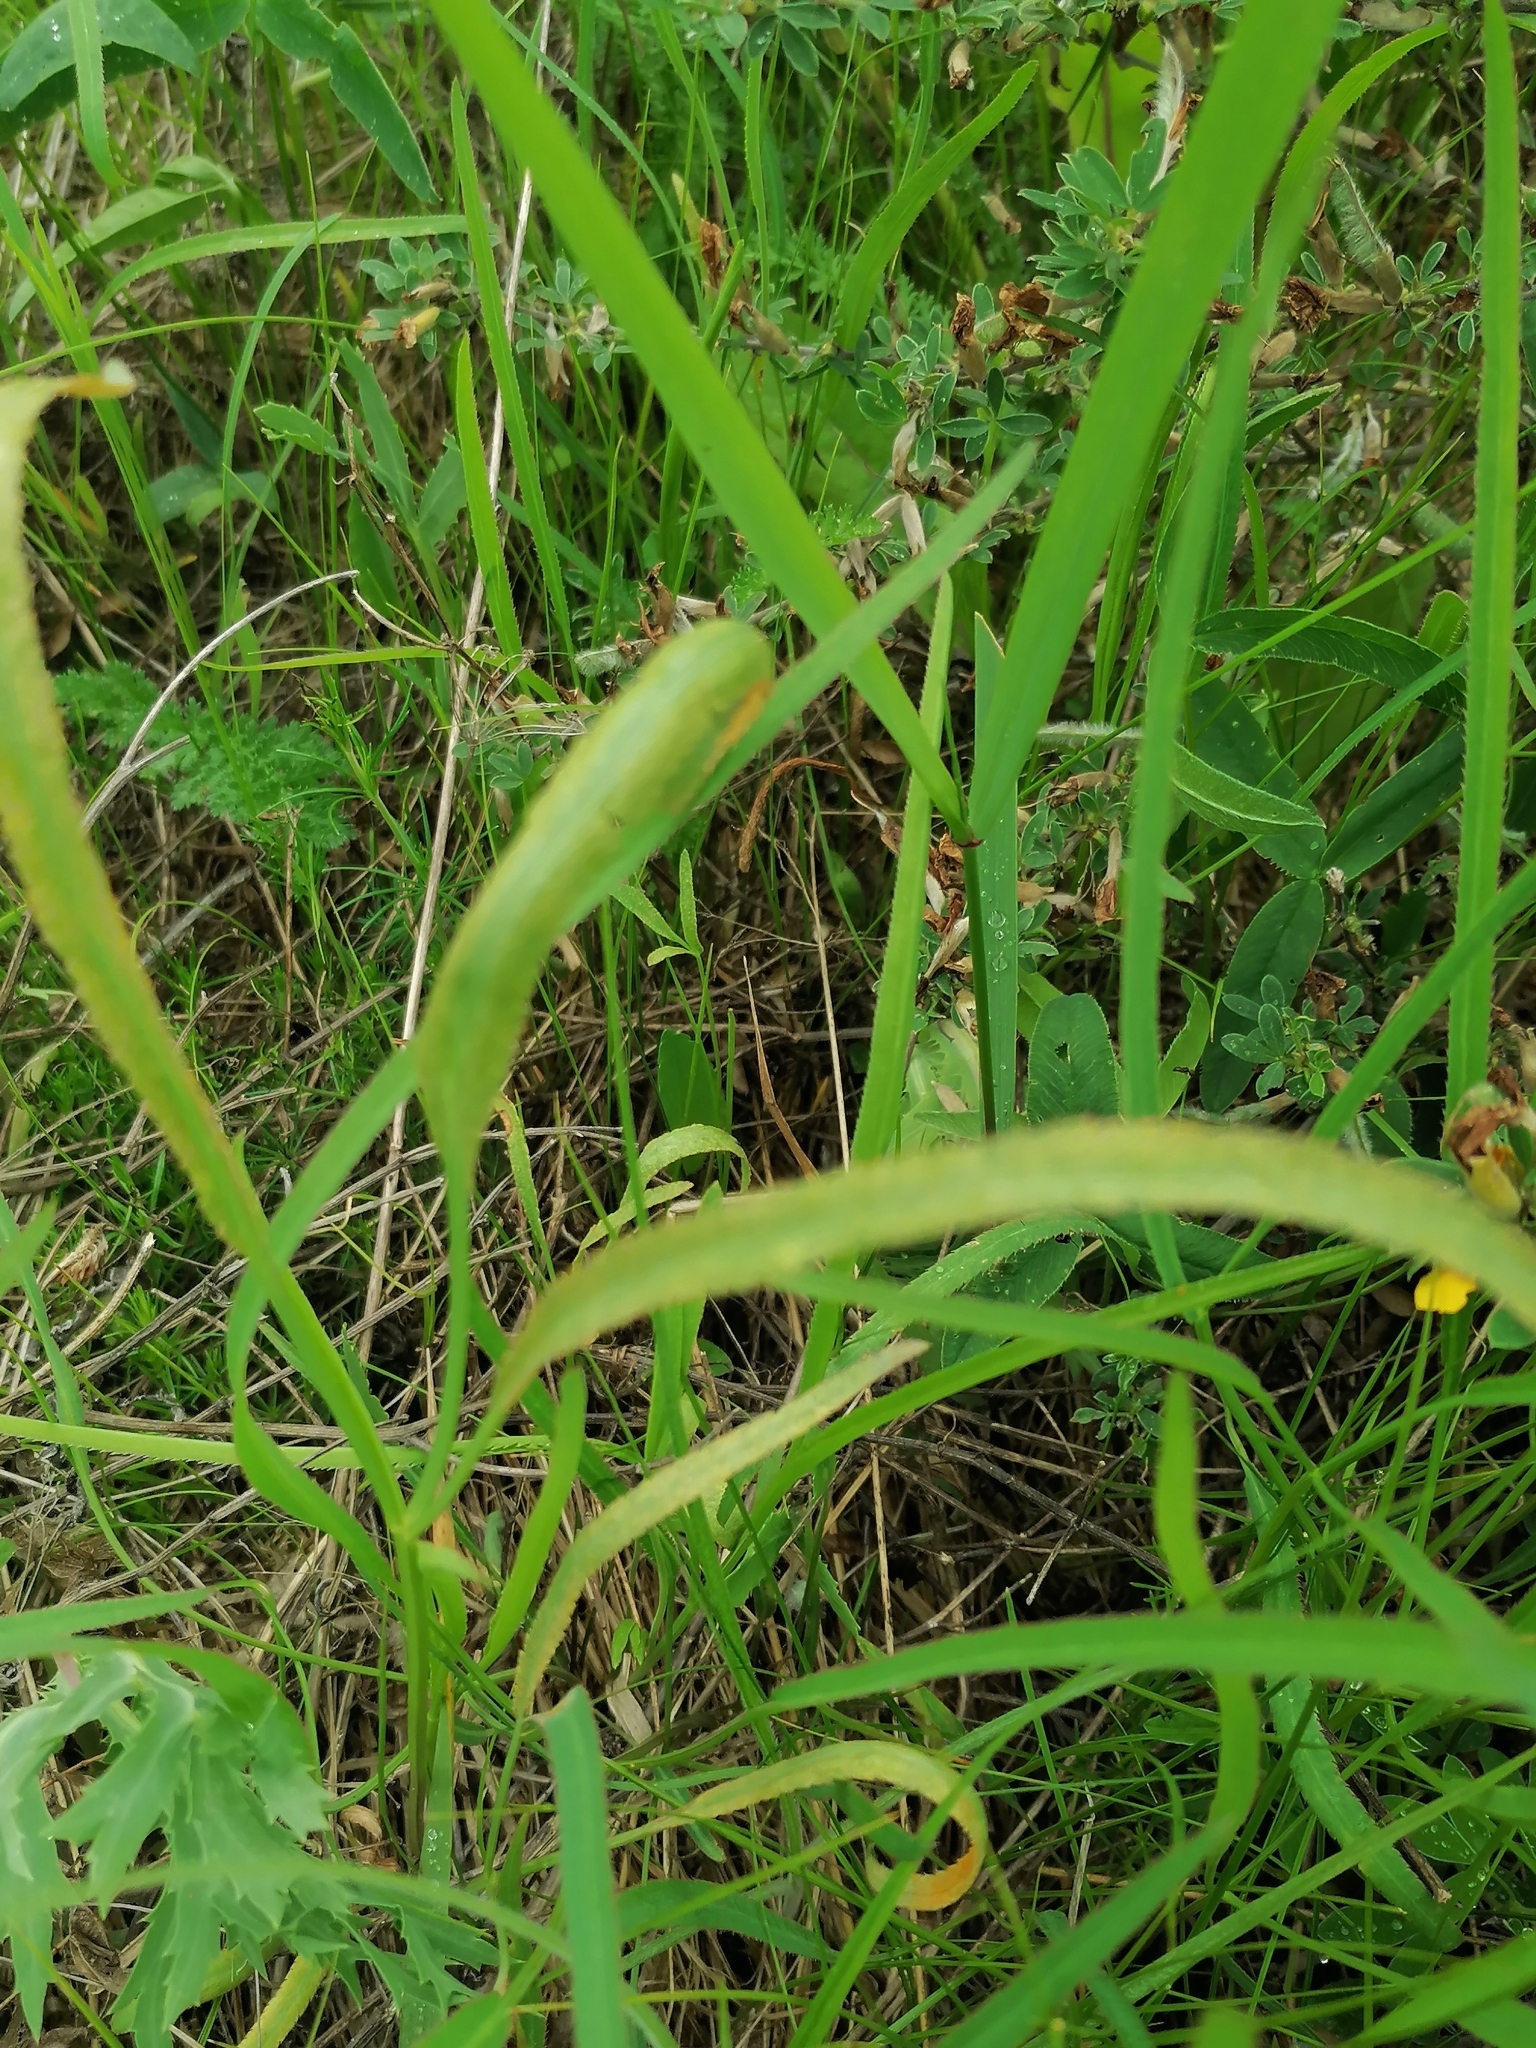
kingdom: Plantae
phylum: Tracheophyta
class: Magnoliopsida
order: Apiales
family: Apiaceae
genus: Falcaria
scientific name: Falcaria vulgaris
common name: Longleaf
